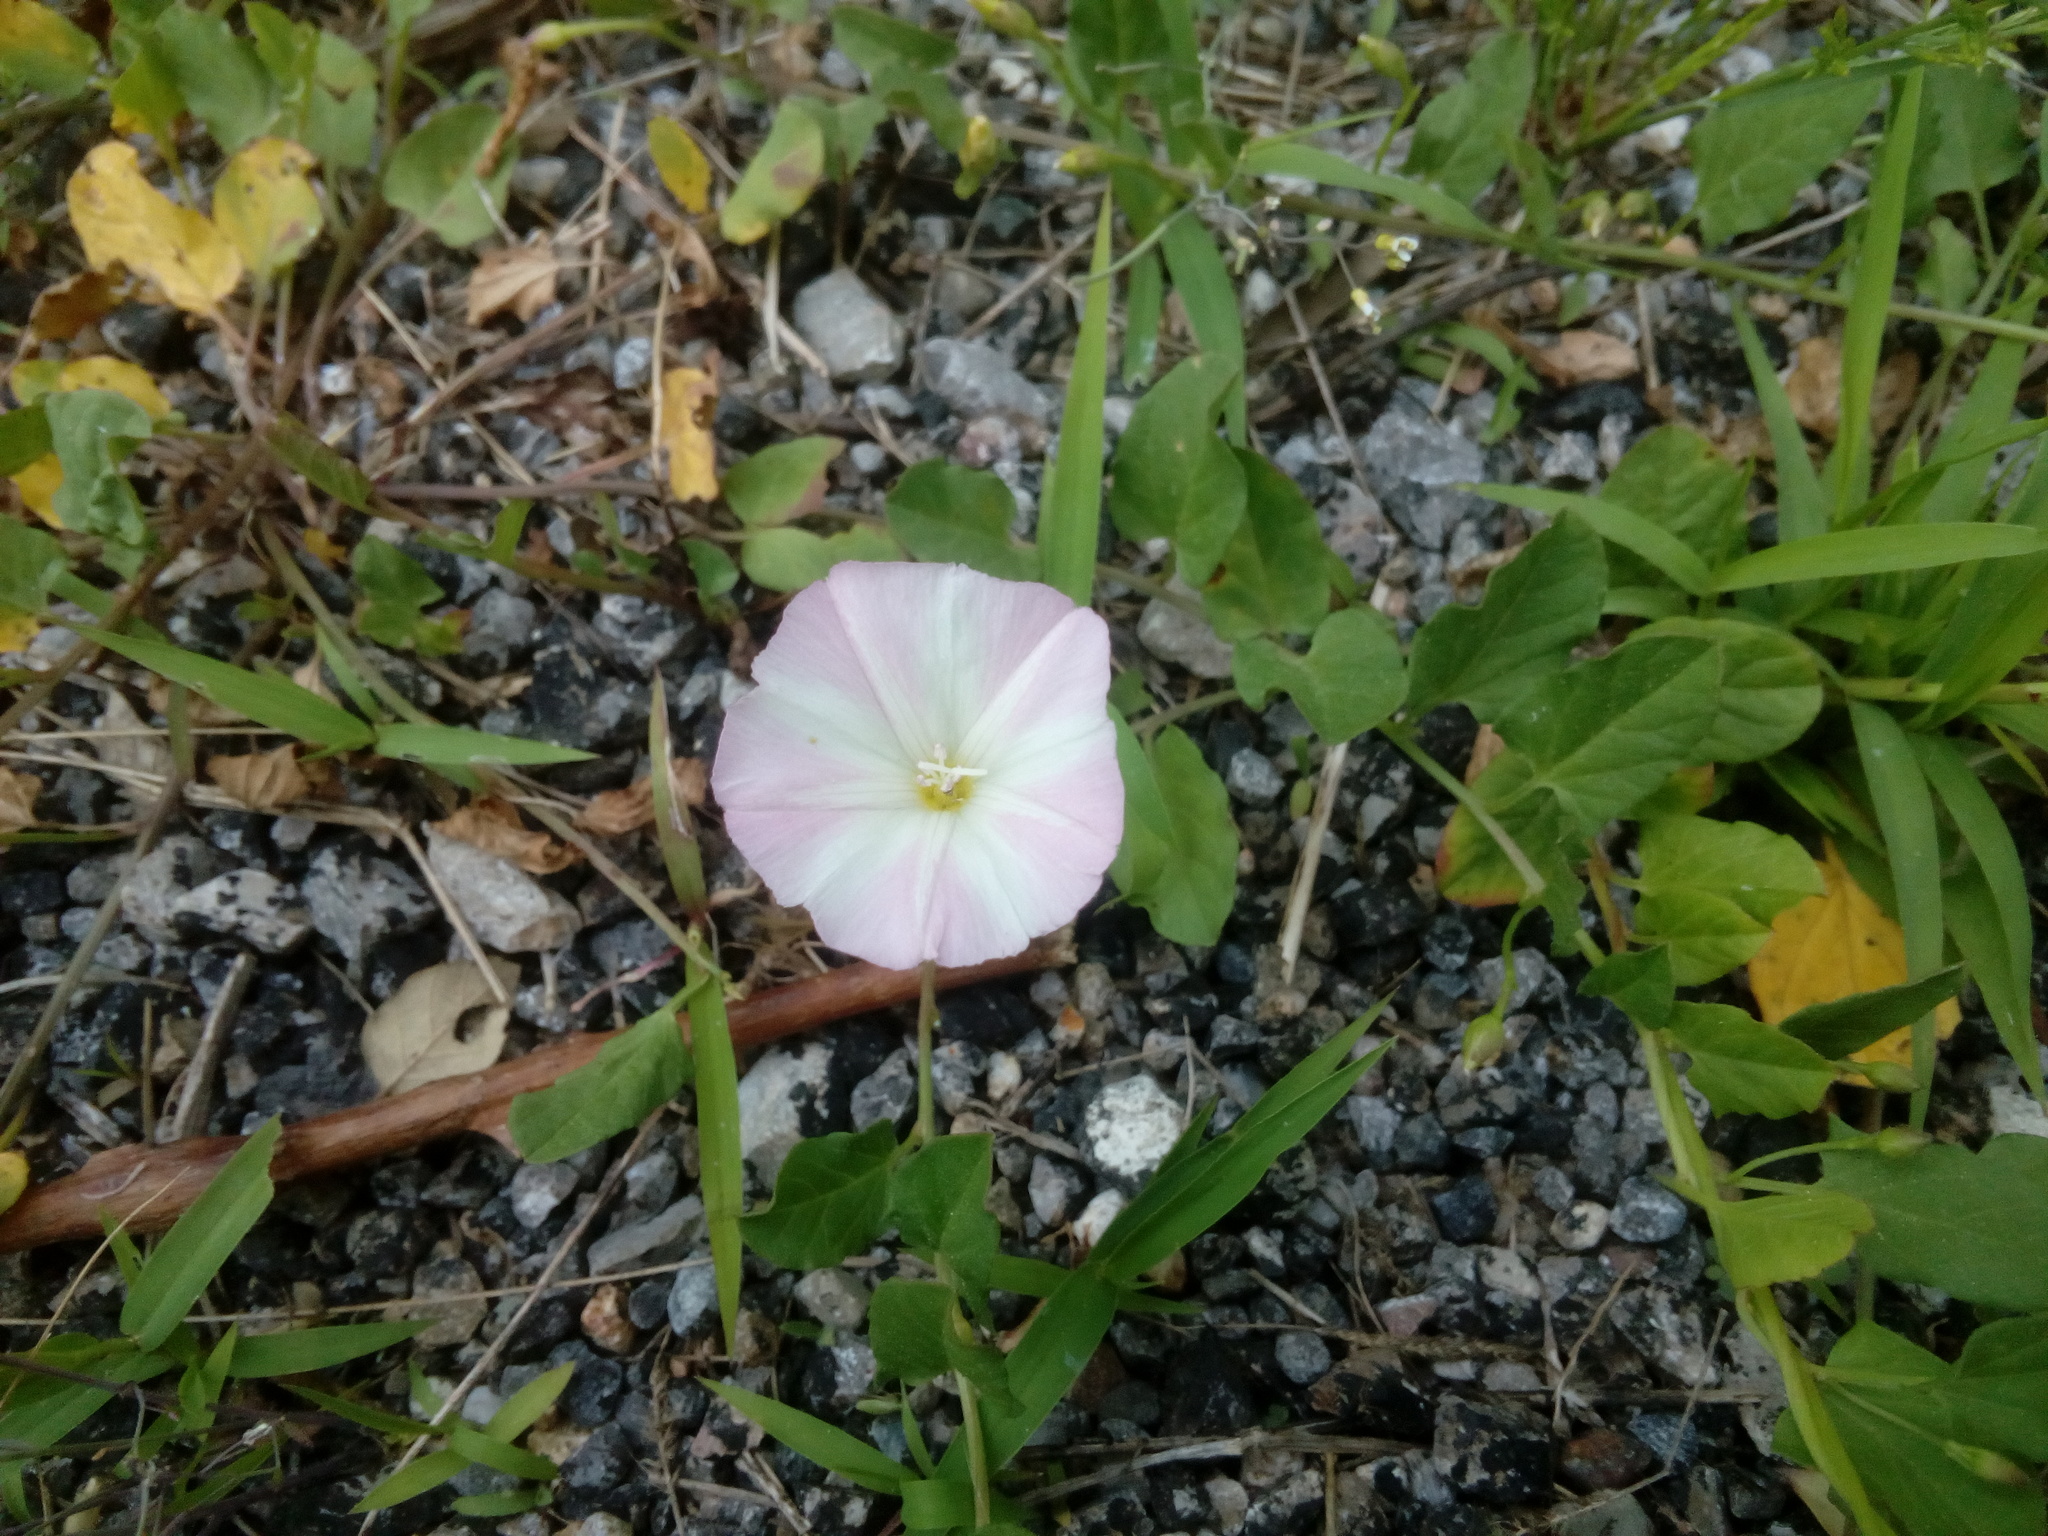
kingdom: Plantae
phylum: Tracheophyta
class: Magnoliopsida
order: Solanales
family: Convolvulaceae
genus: Convolvulus
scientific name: Convolvulus arvensis
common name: Field bindweed
